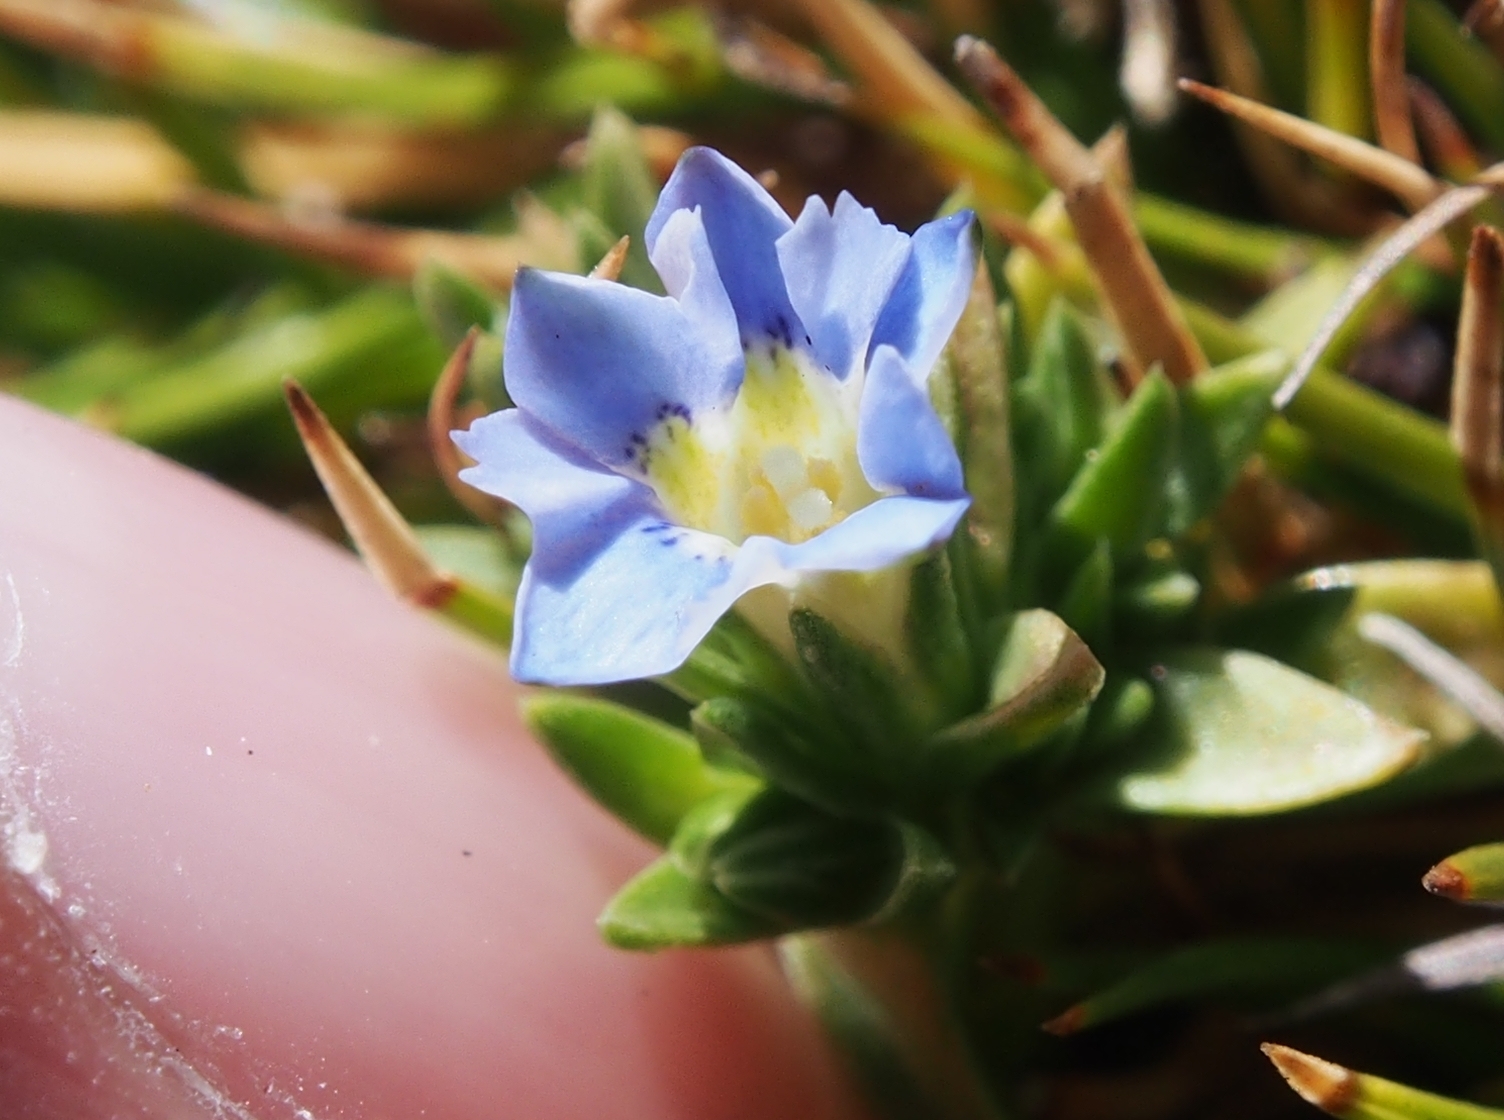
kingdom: Plantae
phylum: Tracheophyta
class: Magnoliopsida
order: Gentianales
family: Gentianaceae
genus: Gentiana
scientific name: Gentiana sedifolia
